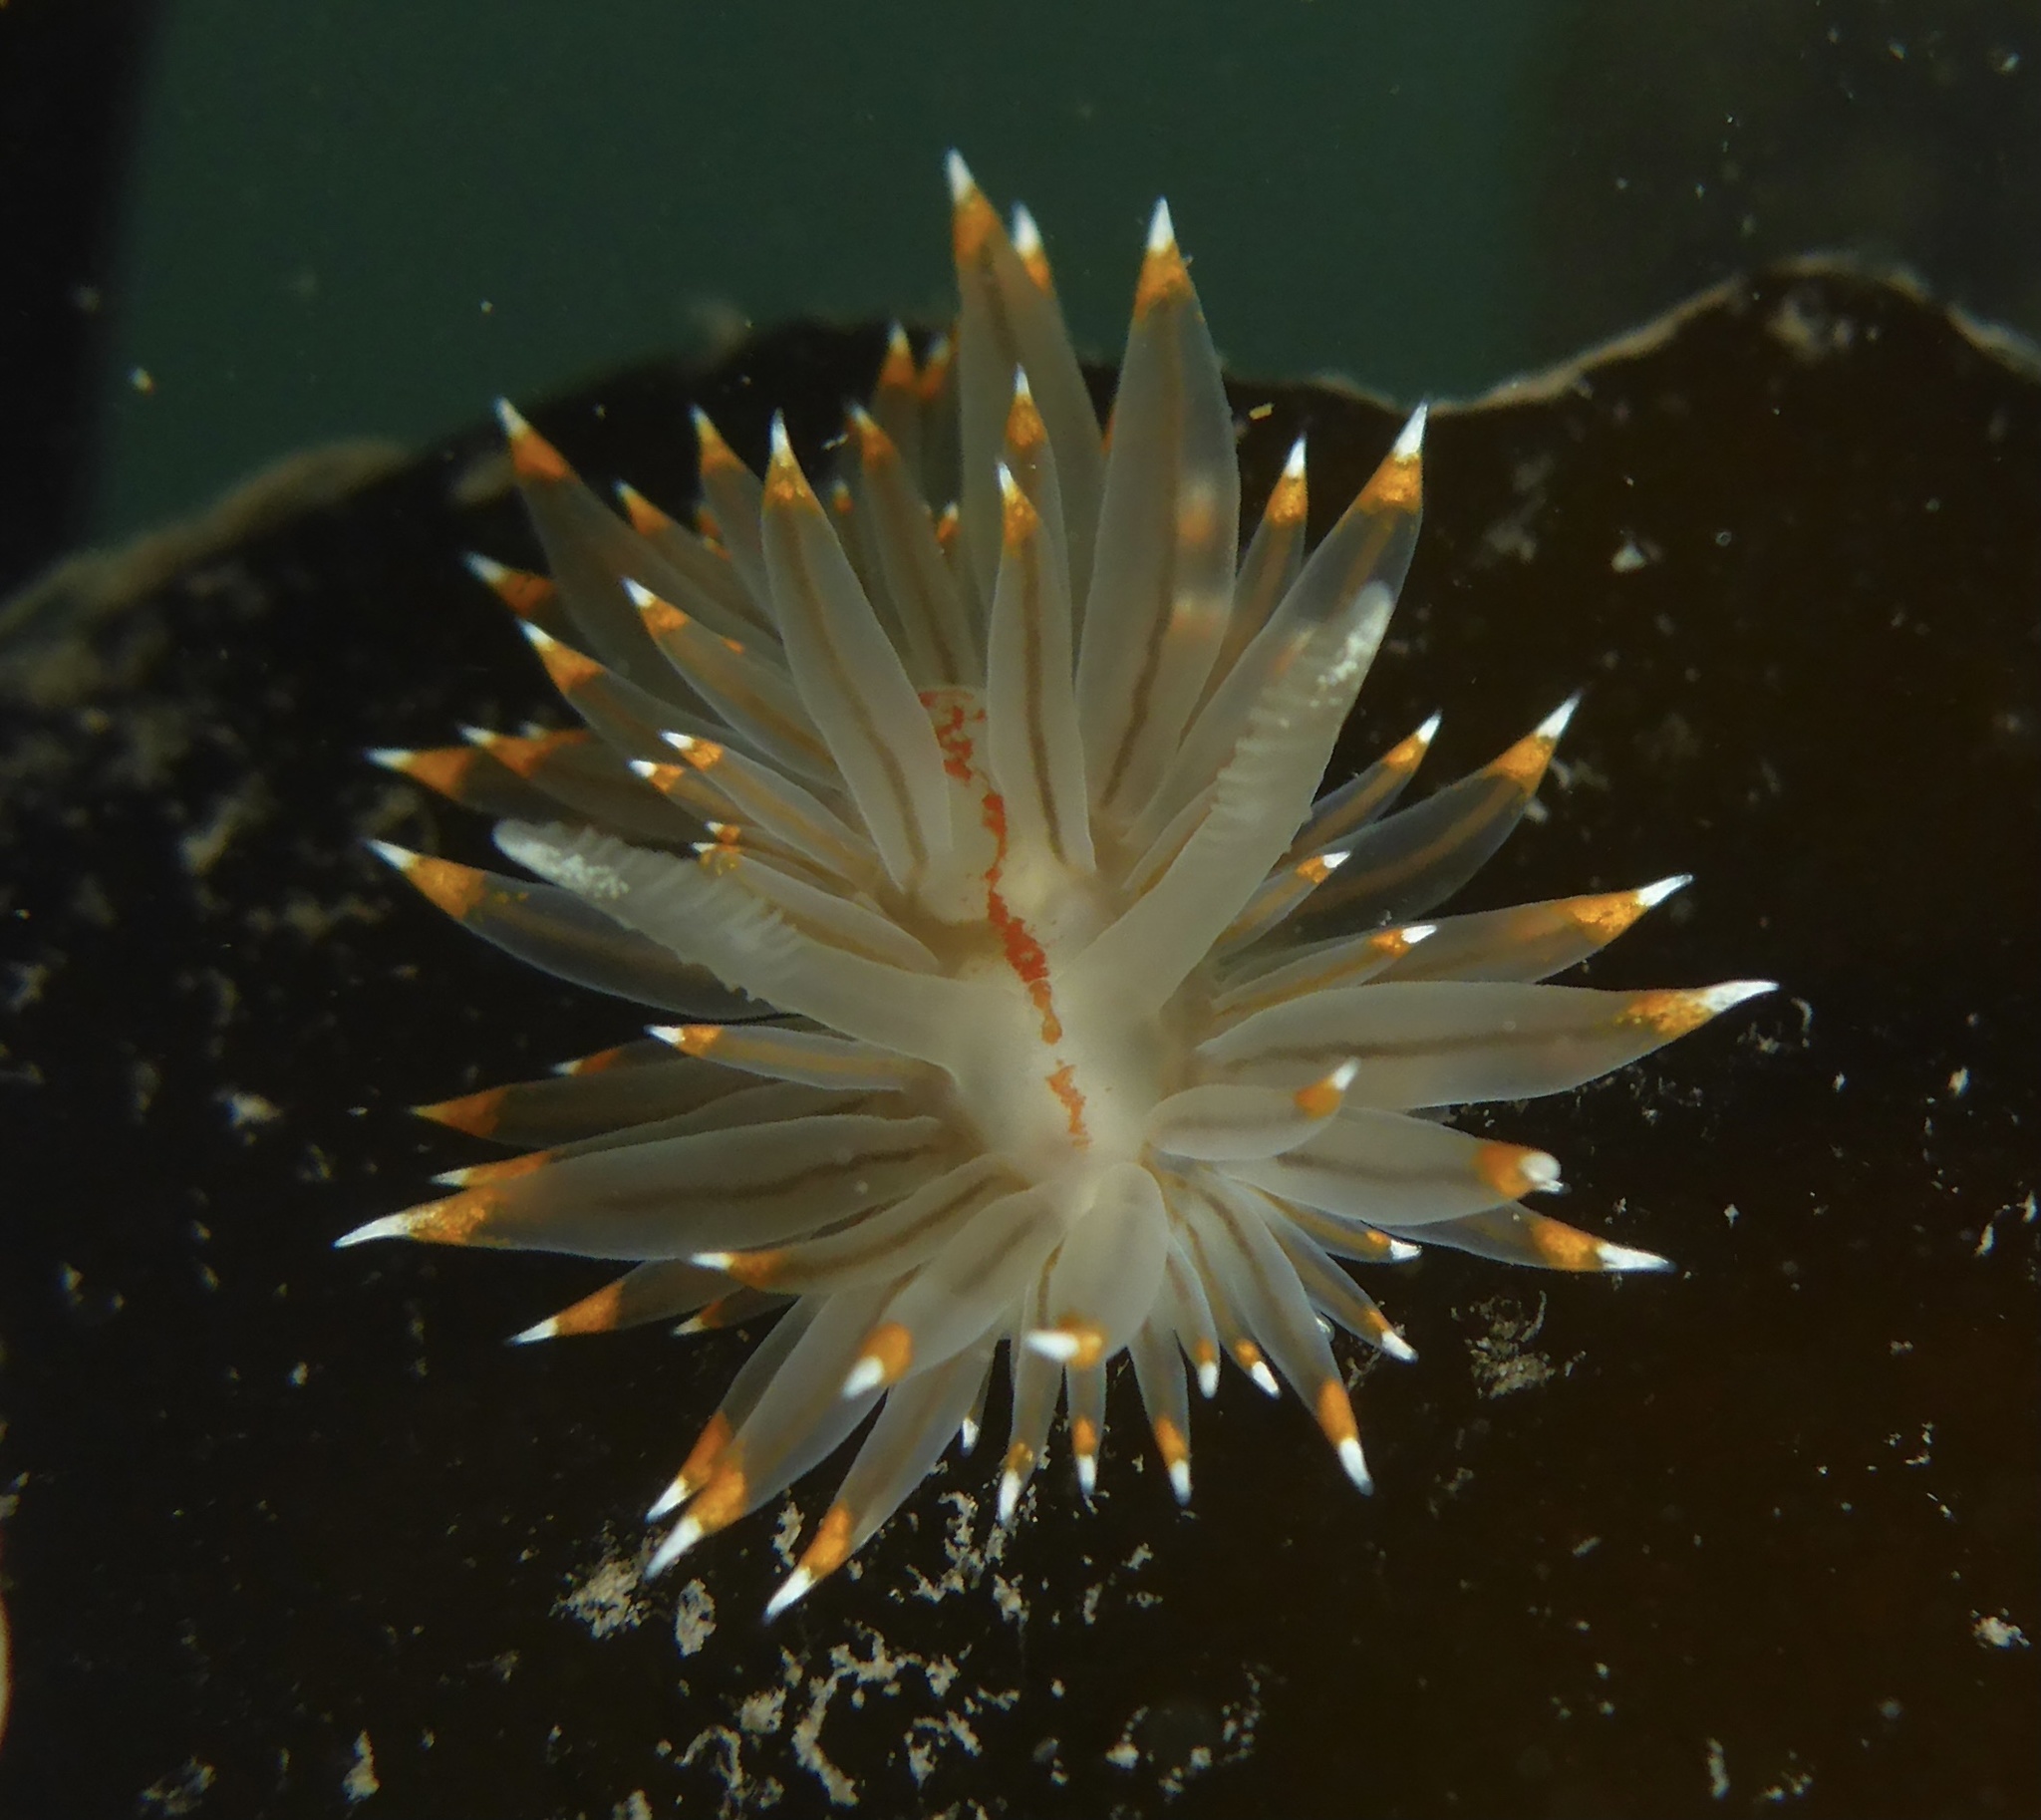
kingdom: Animalia
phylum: Mollusca
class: Gastropoda
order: Nudibranchia
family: Janolidae
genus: Antiopella
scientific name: Antiopella fusca
